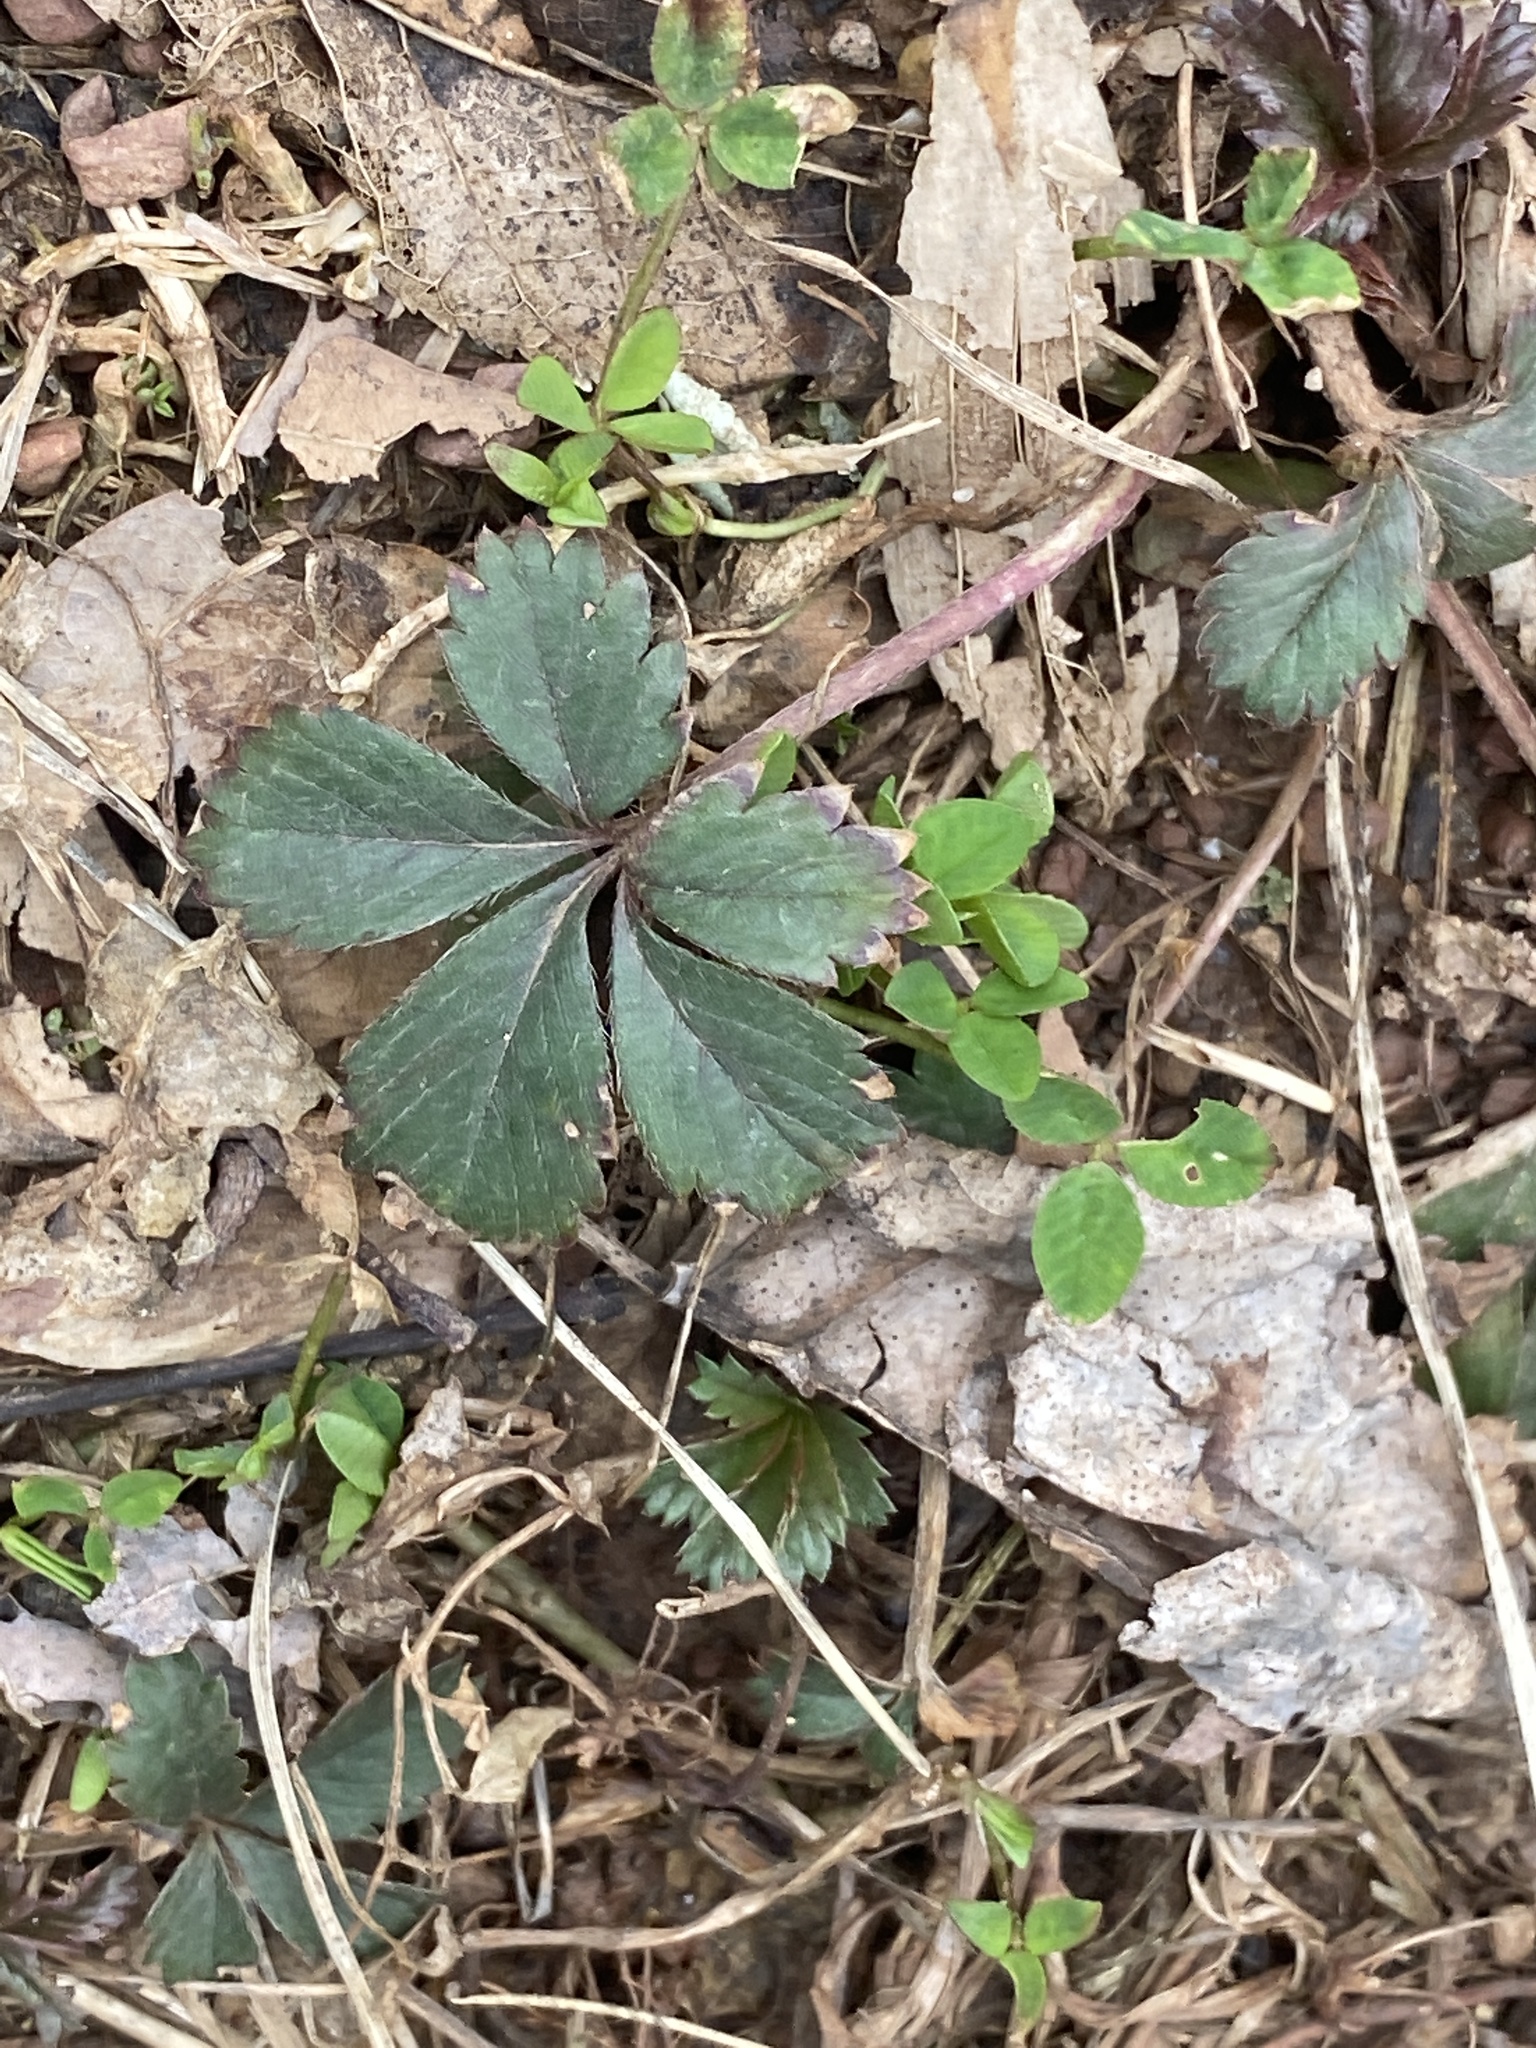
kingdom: Plantae
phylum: Tracheophyta
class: Magnoliopsida
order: Rosales
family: Rosaceae
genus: Potentilla
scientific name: Potentilla canadensis
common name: Canada cinquefoil
